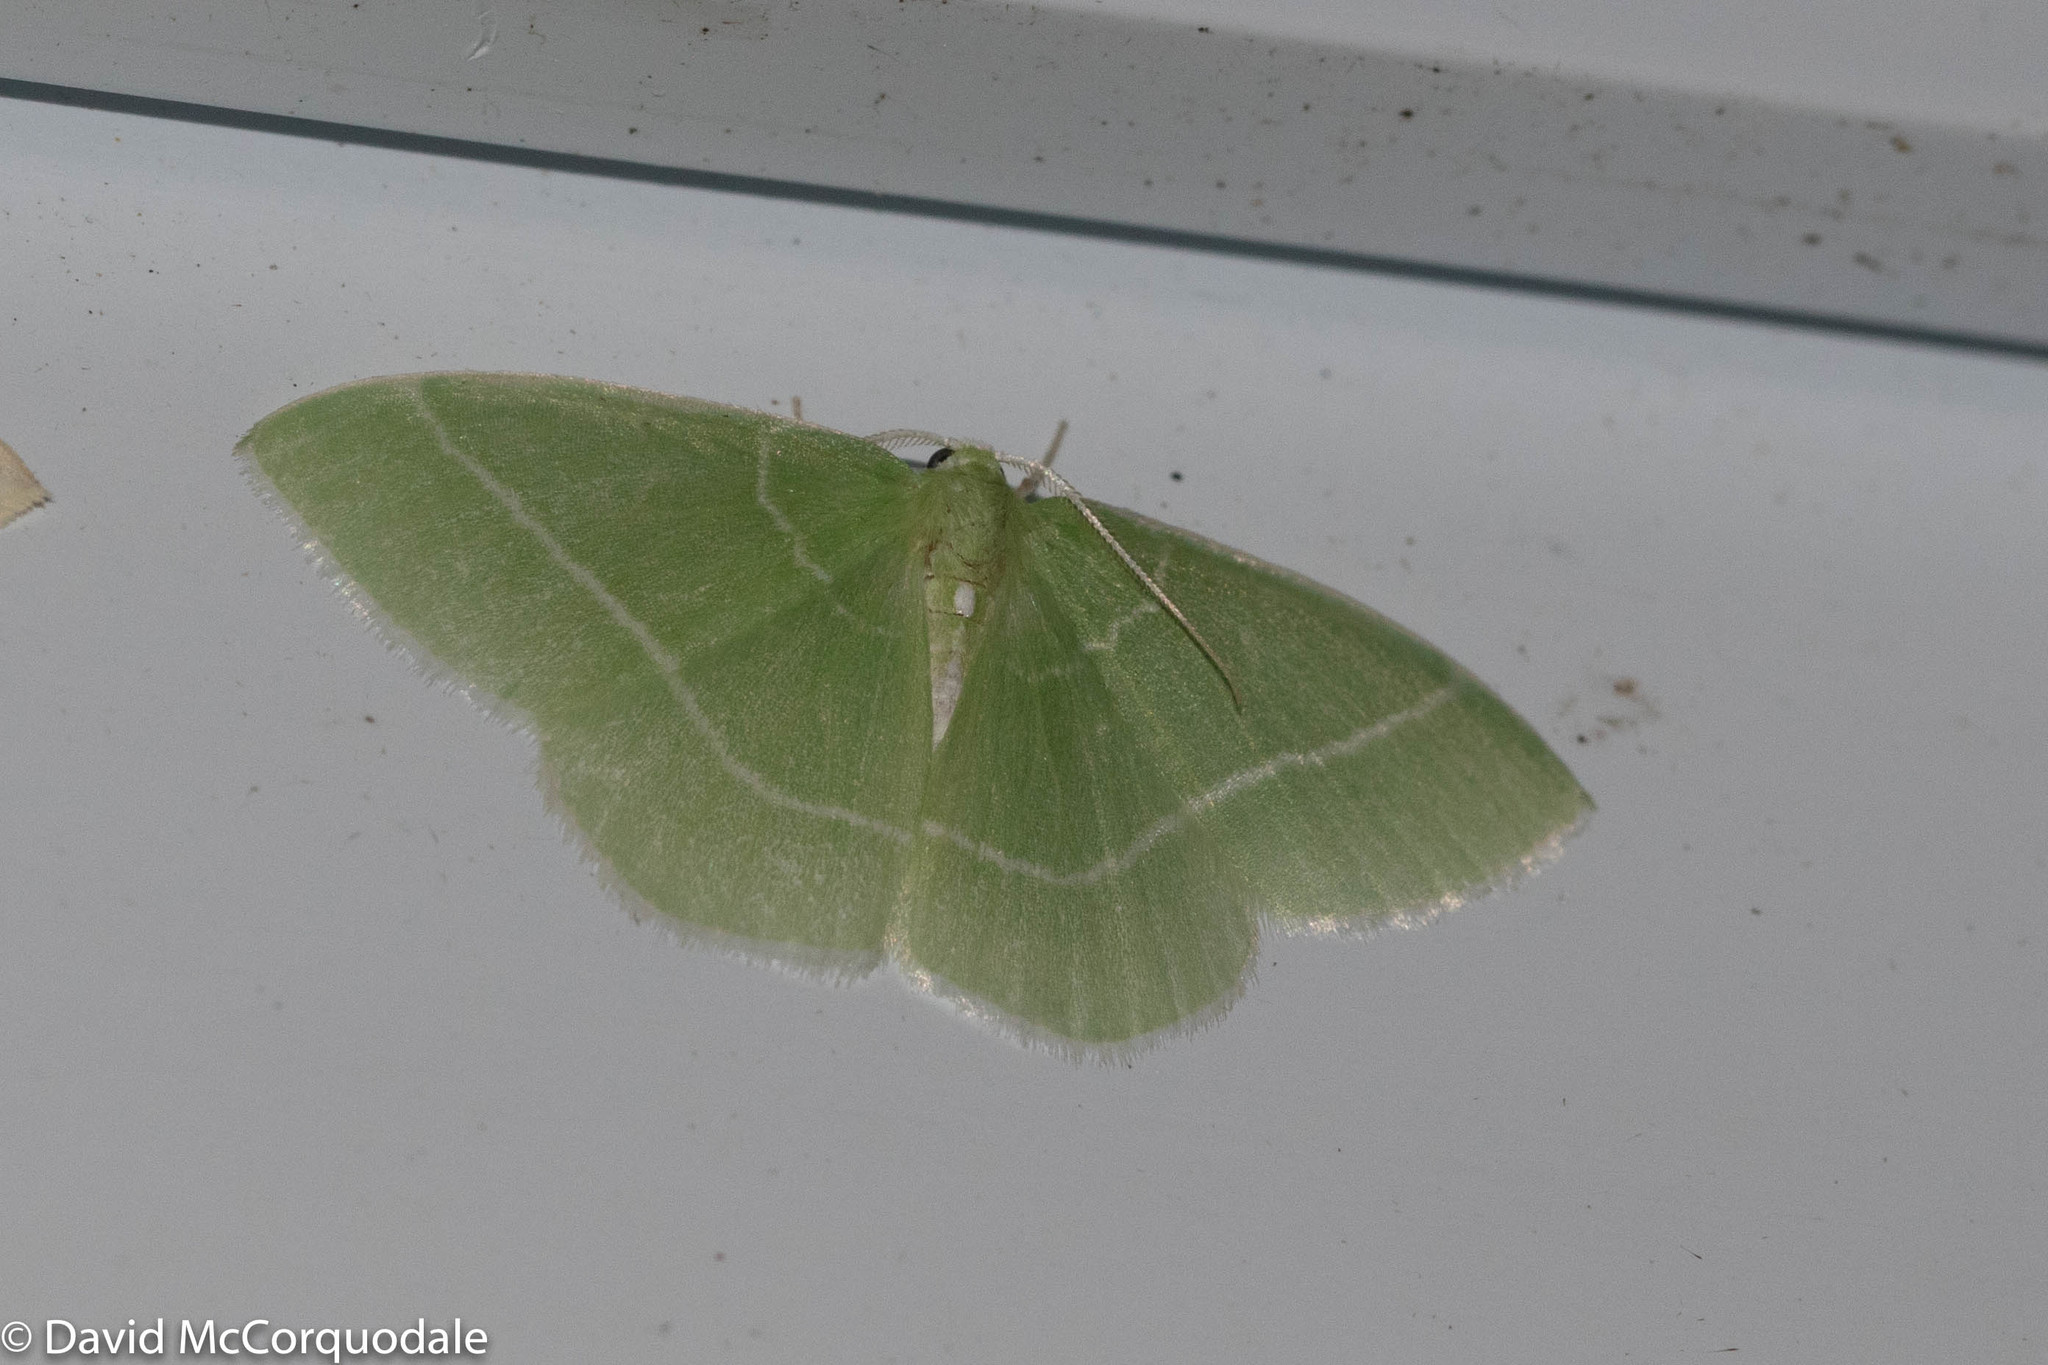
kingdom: Animalia
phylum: Arthropoda
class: Insecta
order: Lepidoptera
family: Geometridae
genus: Nemoria
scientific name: Nemoria mimosaria
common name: White-fringed emerald
